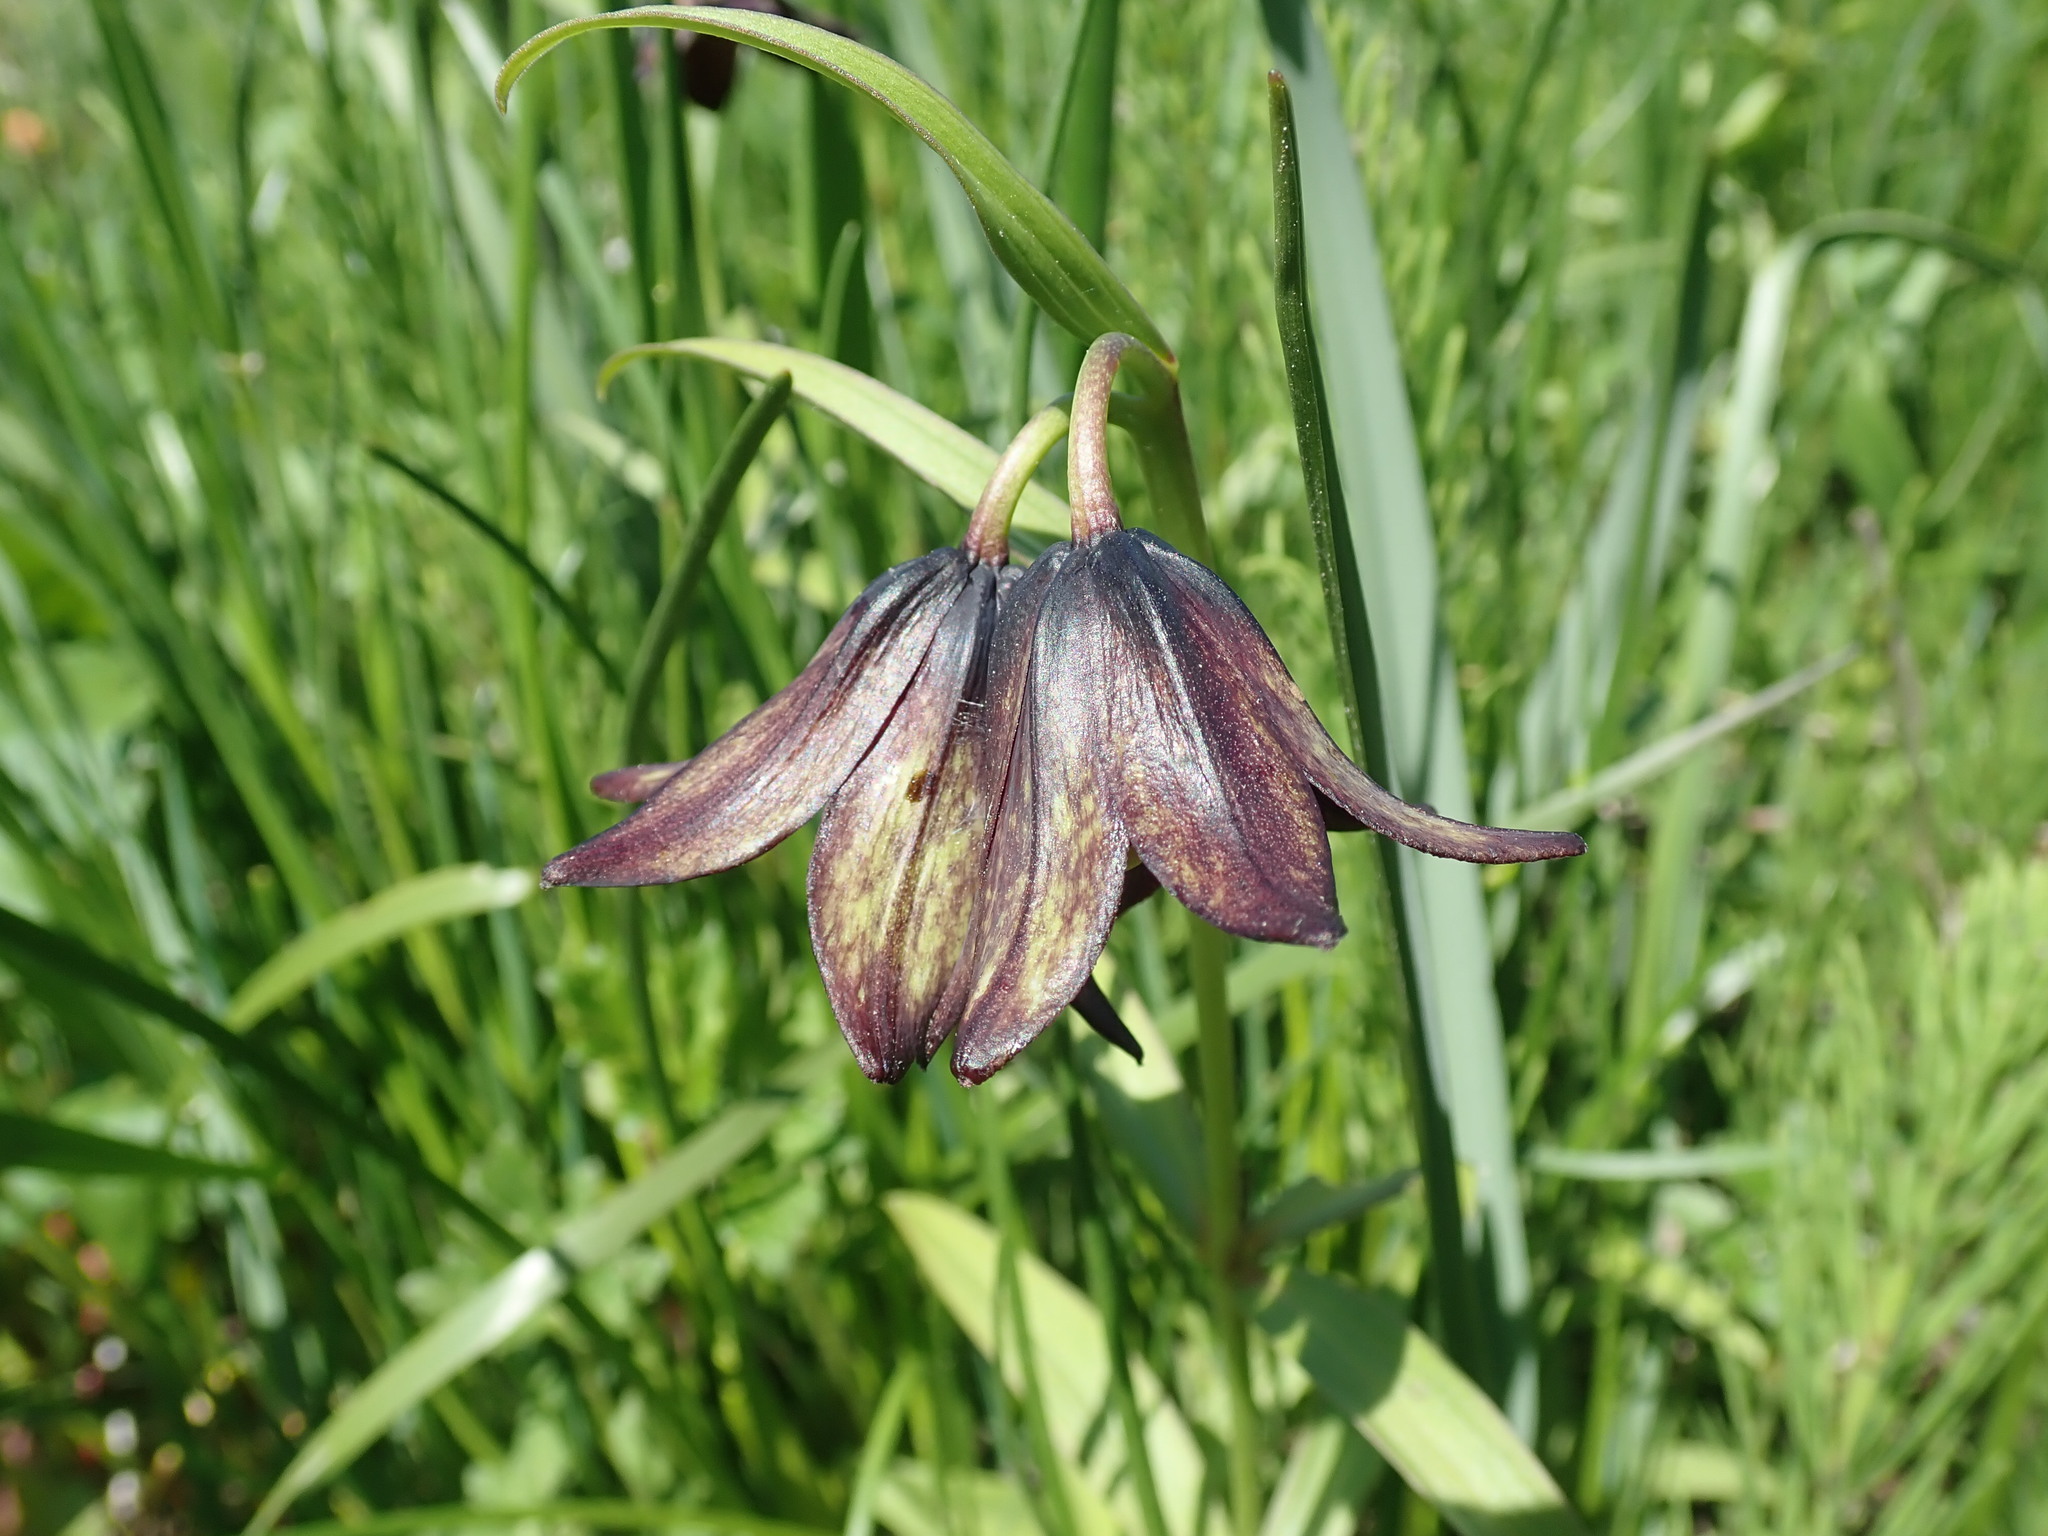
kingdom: Plantae
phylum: Tracheophyta
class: Liliopsida
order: Liliales
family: Liliaceae
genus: Fritillaria
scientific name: Fritillaria camschatcensis
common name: Kamchatka fritillary
